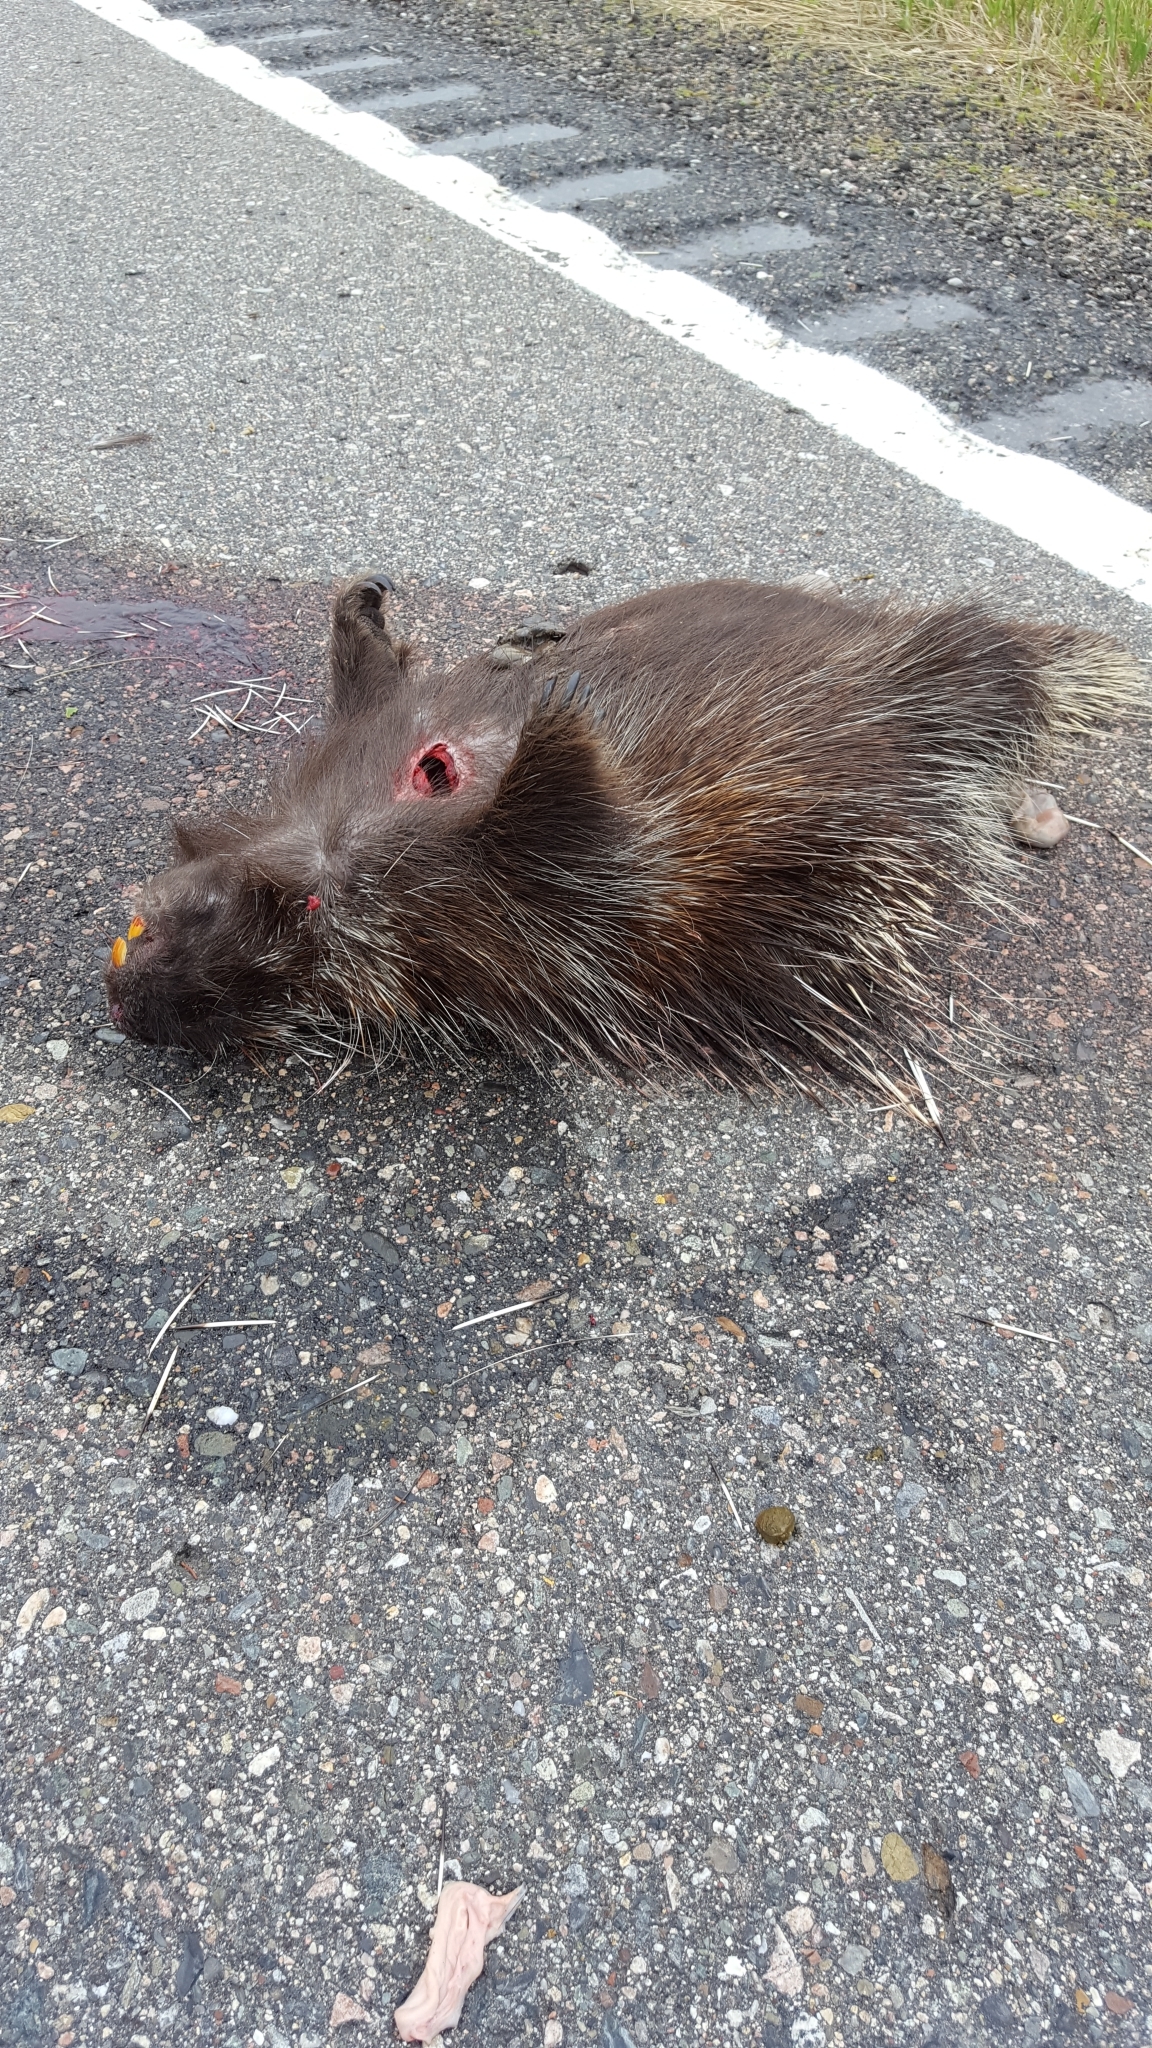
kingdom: Animalia
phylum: Chordata
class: Mammalia
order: Rodentia
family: Erethizontidae
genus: Erethizon
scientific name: Erethizon dorsatus
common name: North american porcupine
